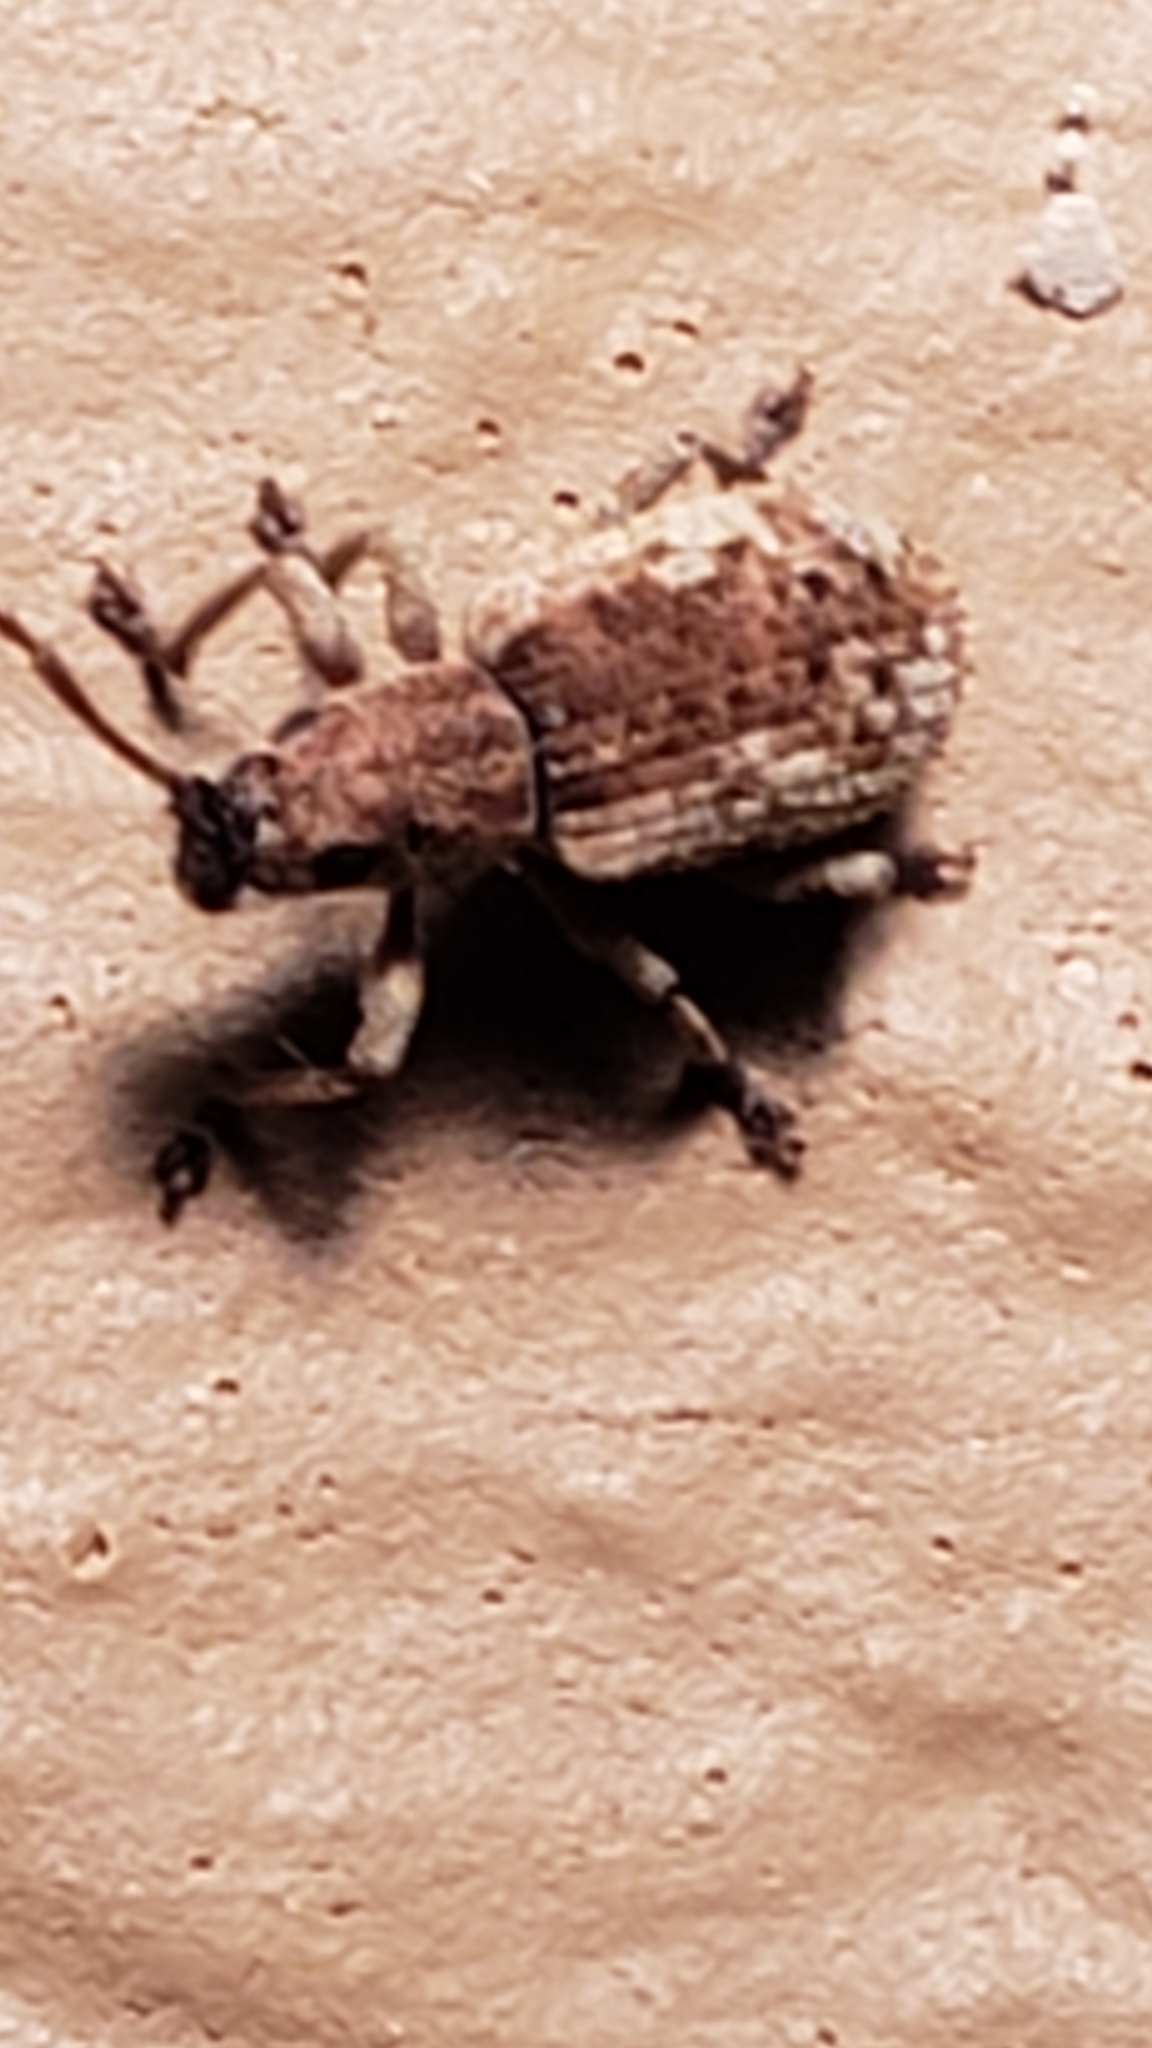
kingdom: Animalia
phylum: Arthropoda
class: Insecta
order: Coleoptera
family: Curculionidae
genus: Pseudoedophrys
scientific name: Pseudoedophrys hilleri
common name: Weevil
